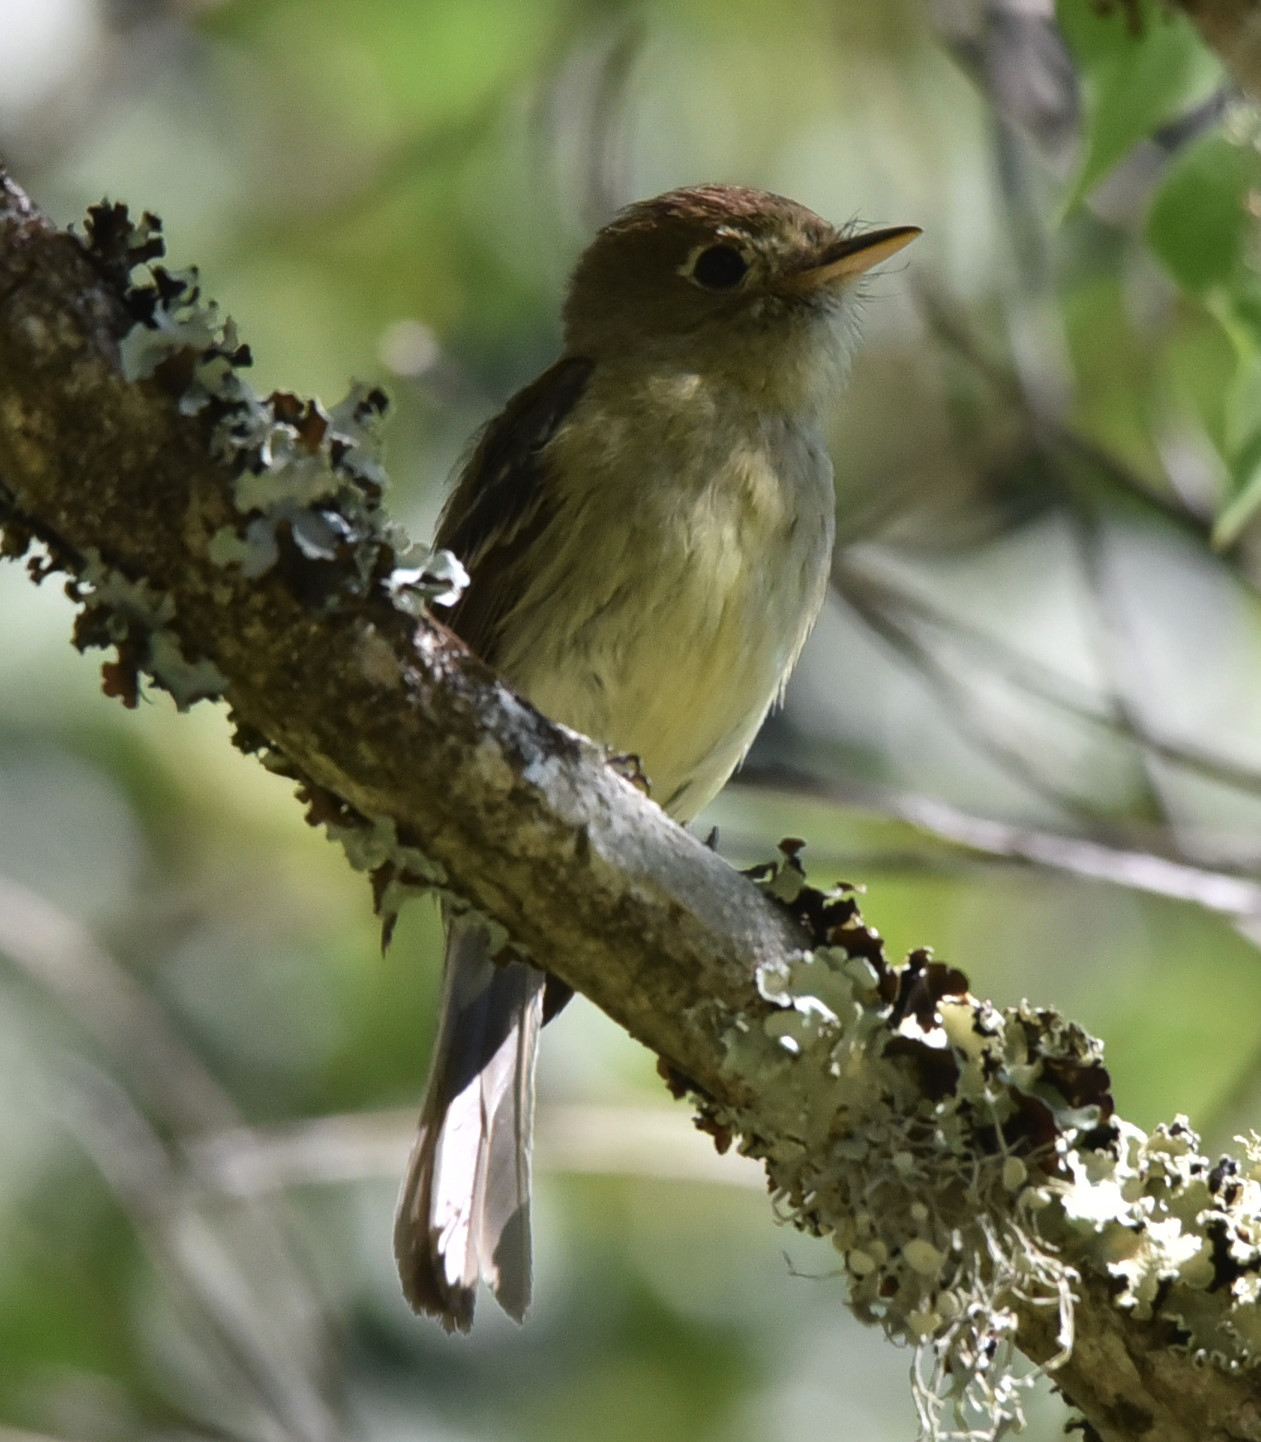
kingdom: Animalia
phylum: Chordata
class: Aves
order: Passeriformes
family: Tyrannidae
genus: Empidonax
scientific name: Empidonax difficilis
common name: Pacific-slope flycatcher
